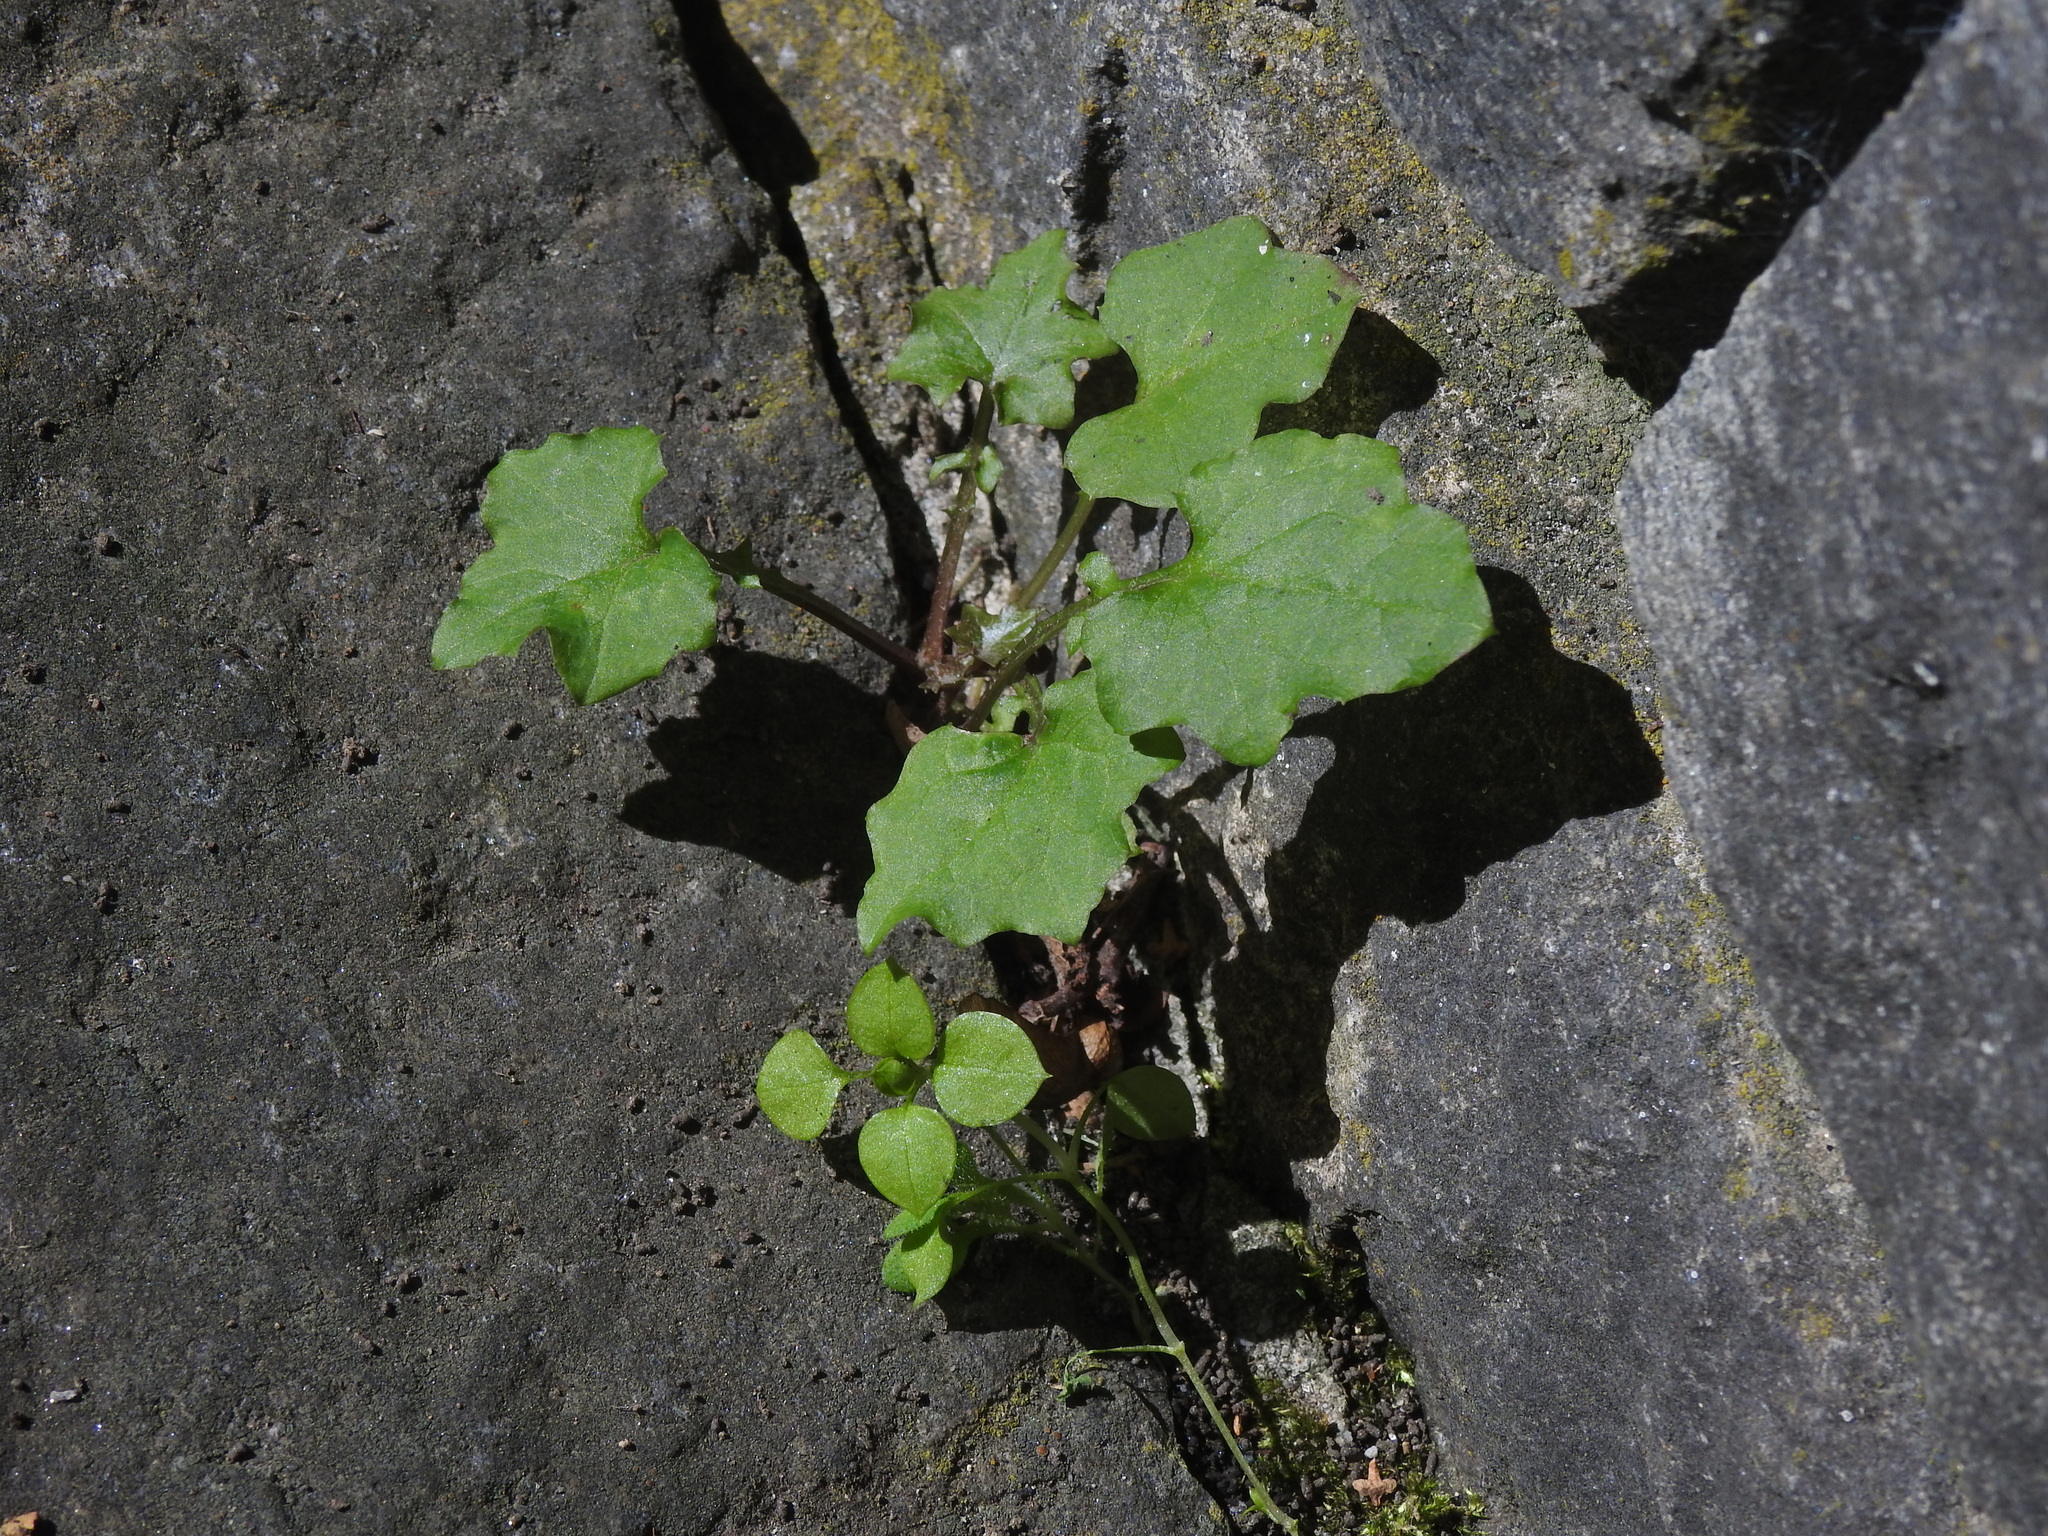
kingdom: Plantae
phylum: Tracheophyta
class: Magnoliopsida
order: Asterales
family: Asteraceae
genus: Mycelis
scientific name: Mycelis muralis
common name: Wall lettuce
